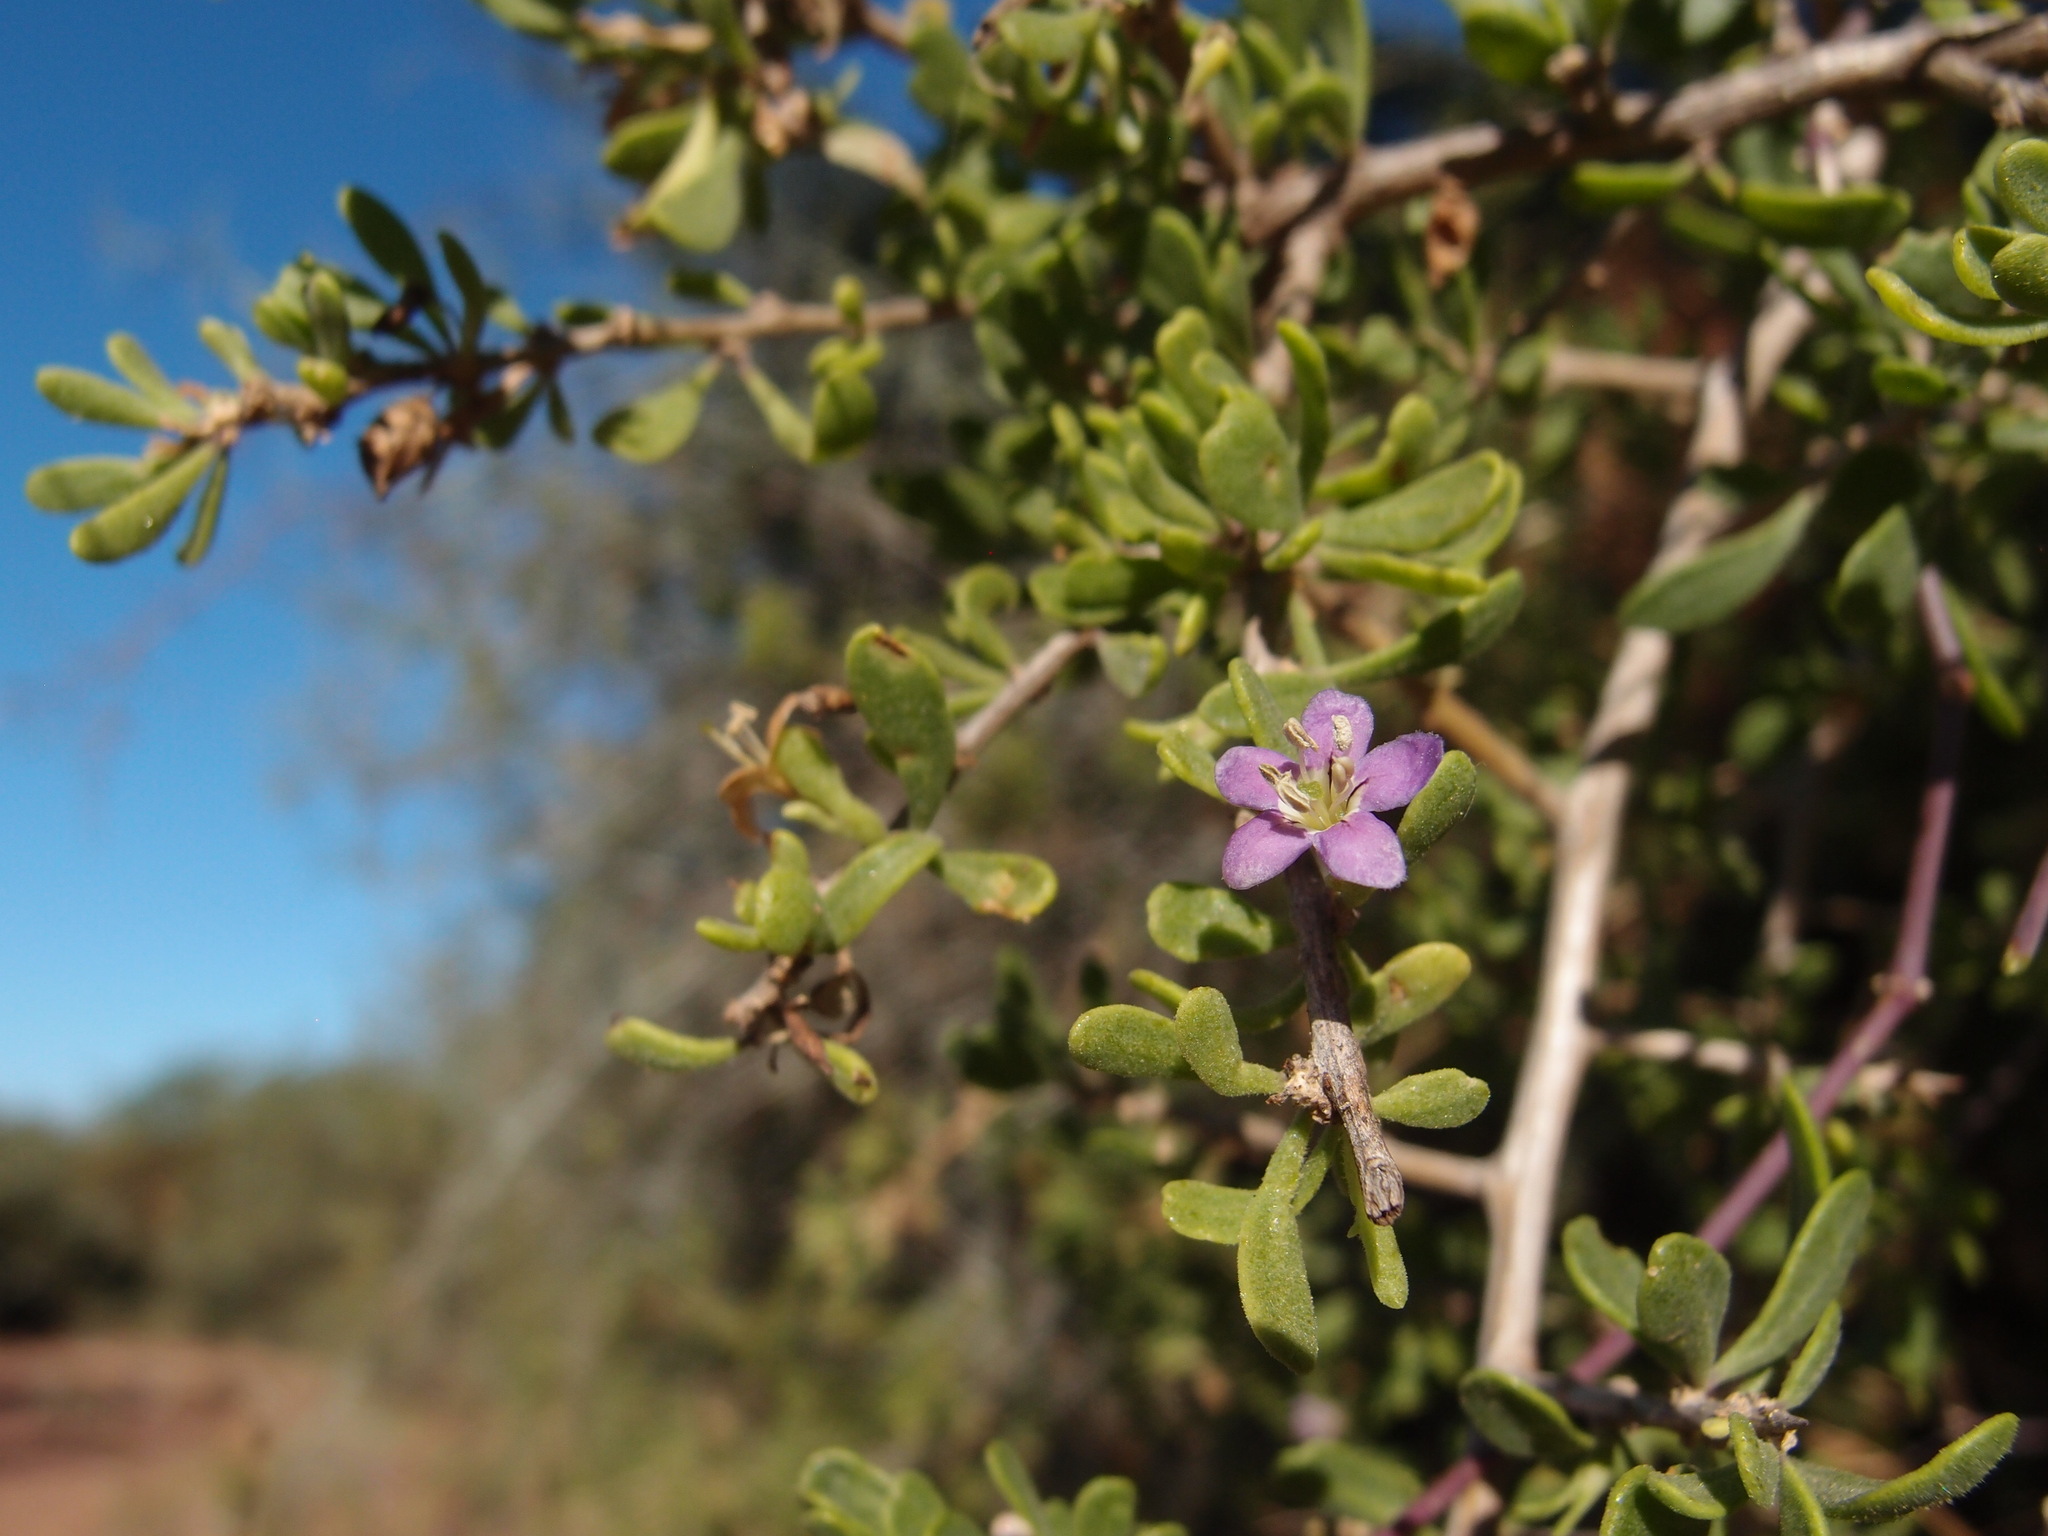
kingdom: Plantae
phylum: Tracheophyta
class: Magnoliopsida
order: Solanales
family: Solanaceae
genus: Lycium
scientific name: Lycium brevipes
